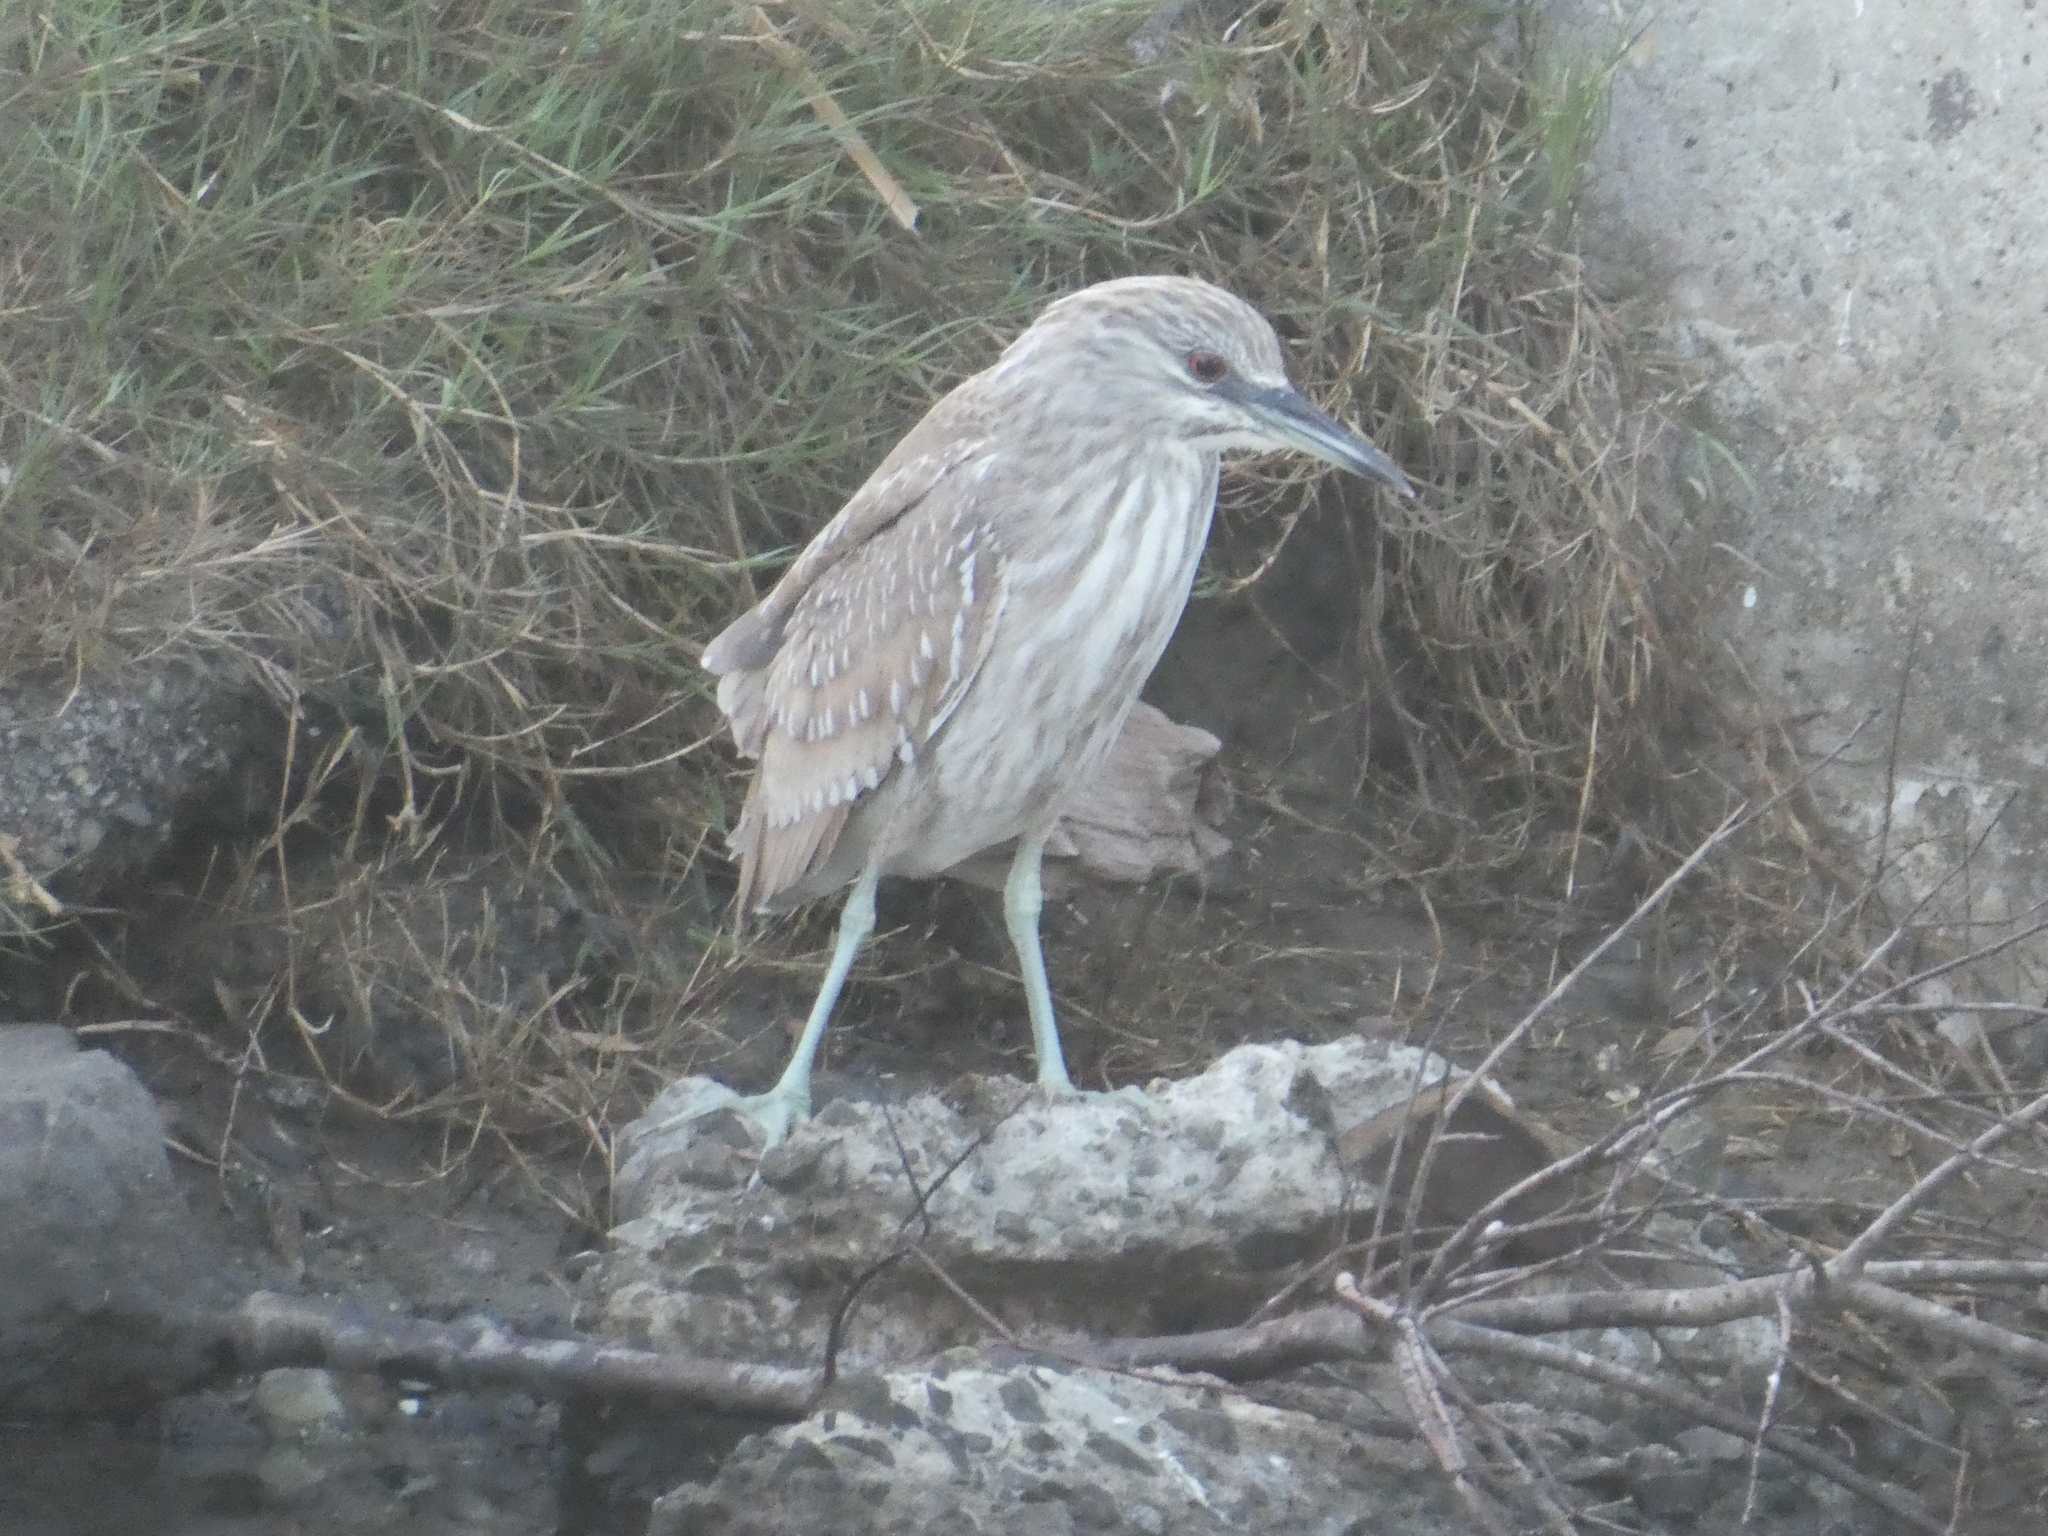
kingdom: Animalia
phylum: Chordata
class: Aves
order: Pelecaniformes
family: Ardeidae
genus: Nycticorax
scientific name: Nycticorax nycticorax
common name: Black-crowned night heron
